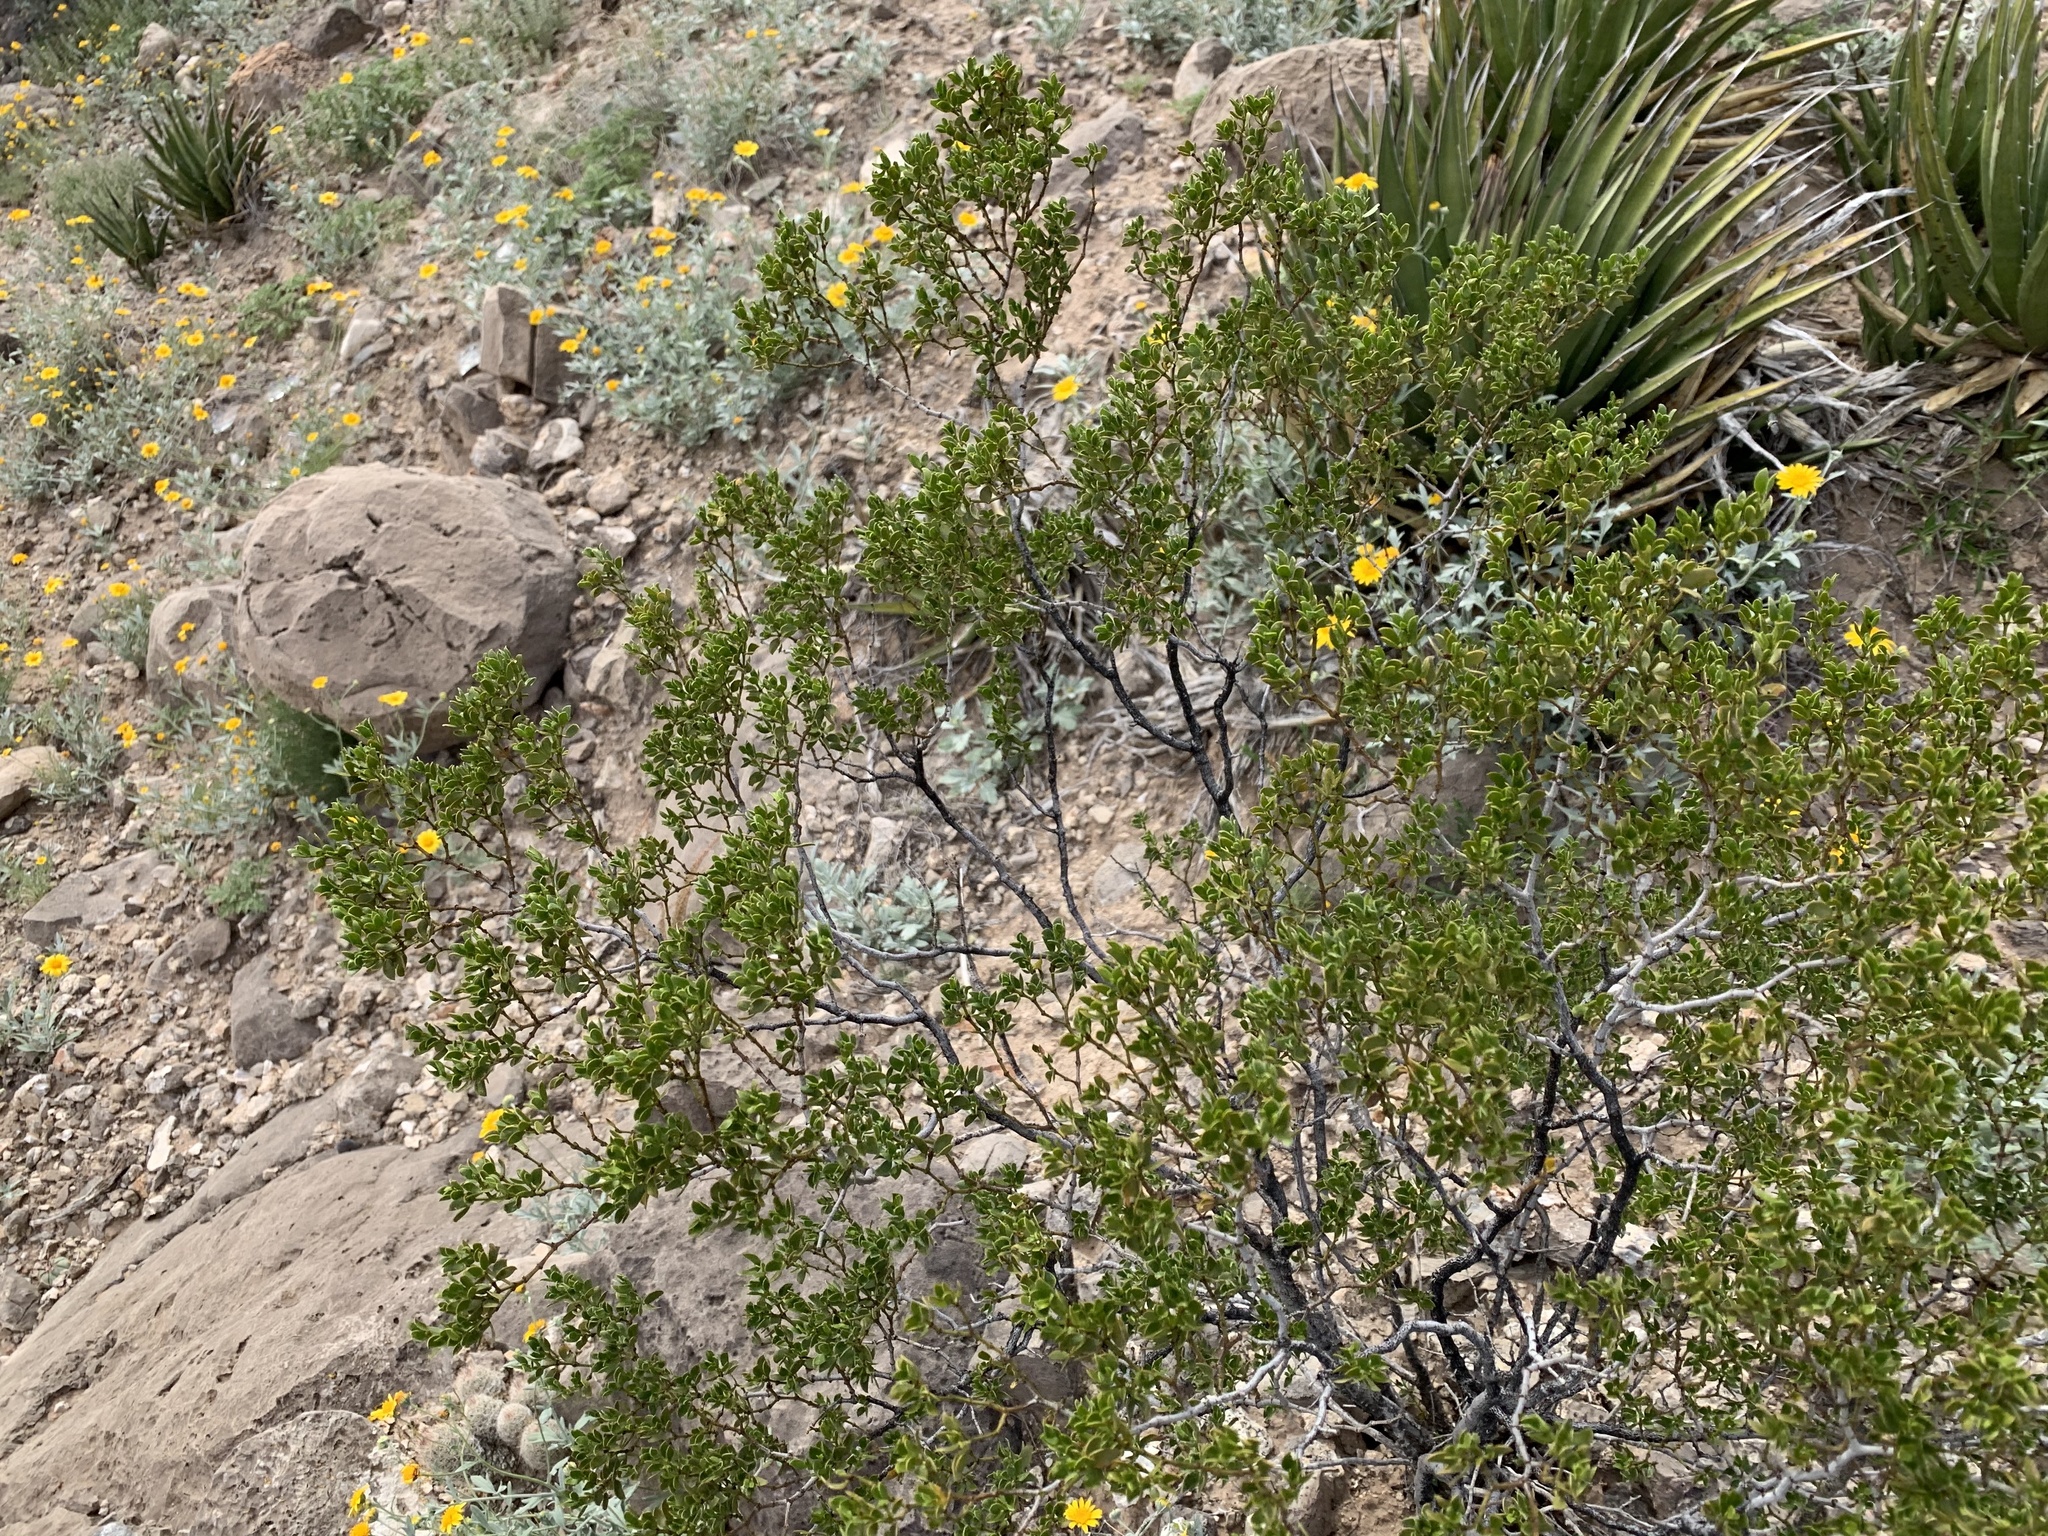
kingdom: Plantae
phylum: Tracheophyta
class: Magnoliopsida
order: Zygophyllales
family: Zygophyllaceae
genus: Larrea
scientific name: Larrea tridentata
